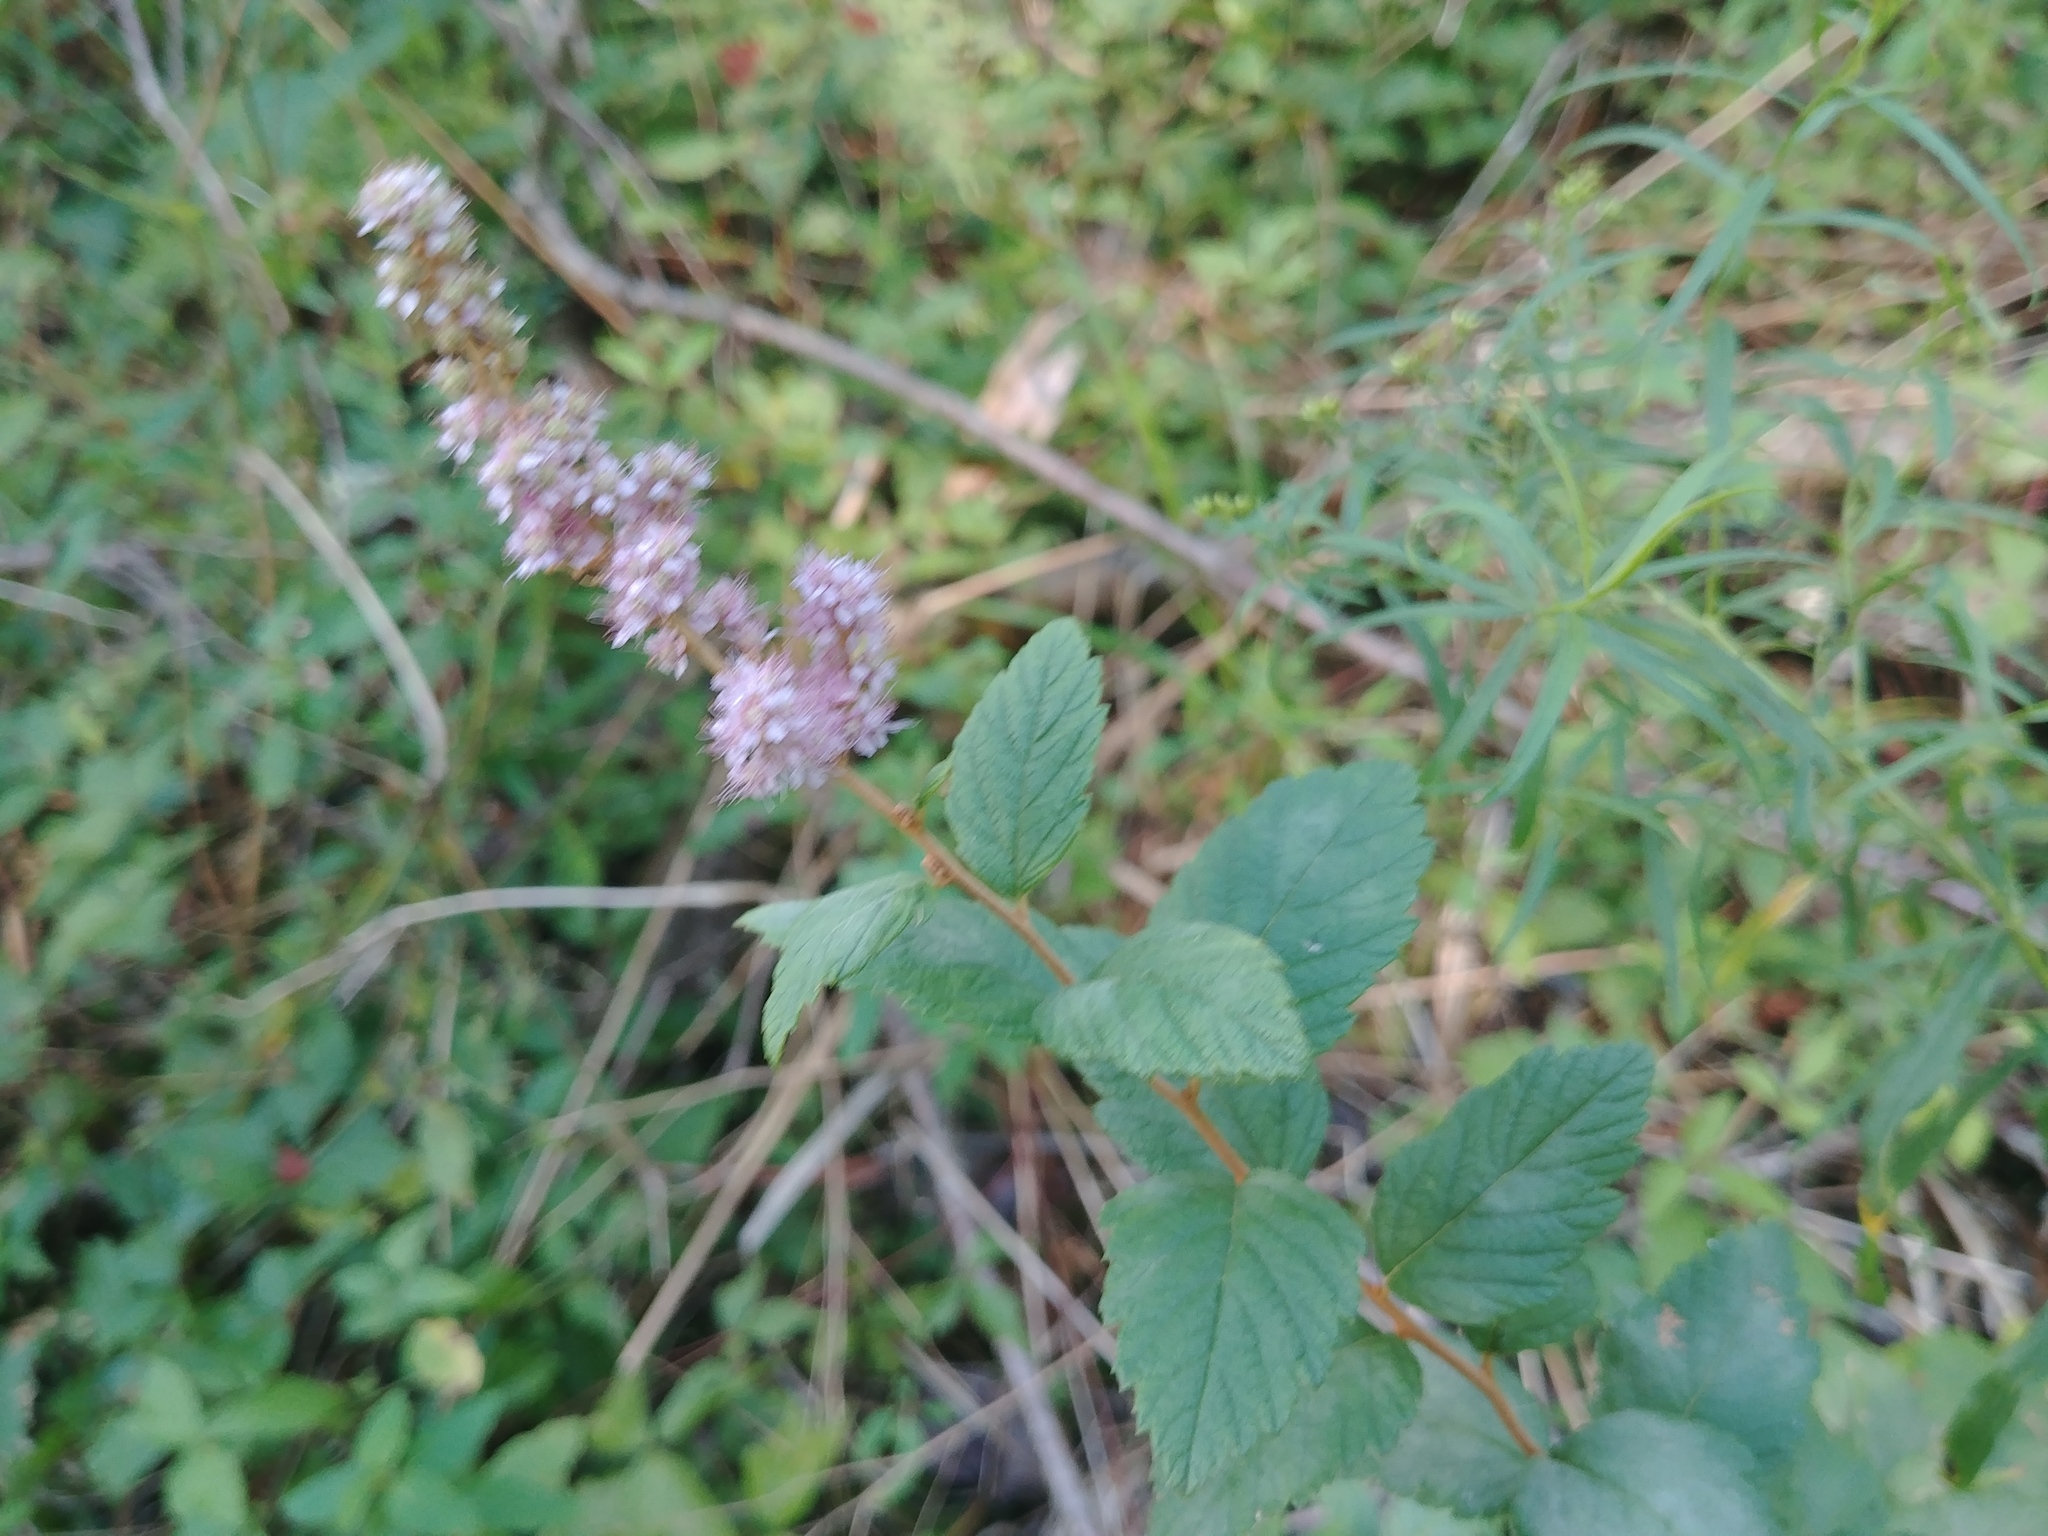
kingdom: Plantae
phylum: Tracheophyta
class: Magnoliopsida
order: Rosales
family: Rosaceae
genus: Spiraea
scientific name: Spiraea tomentosa
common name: Hardhack
